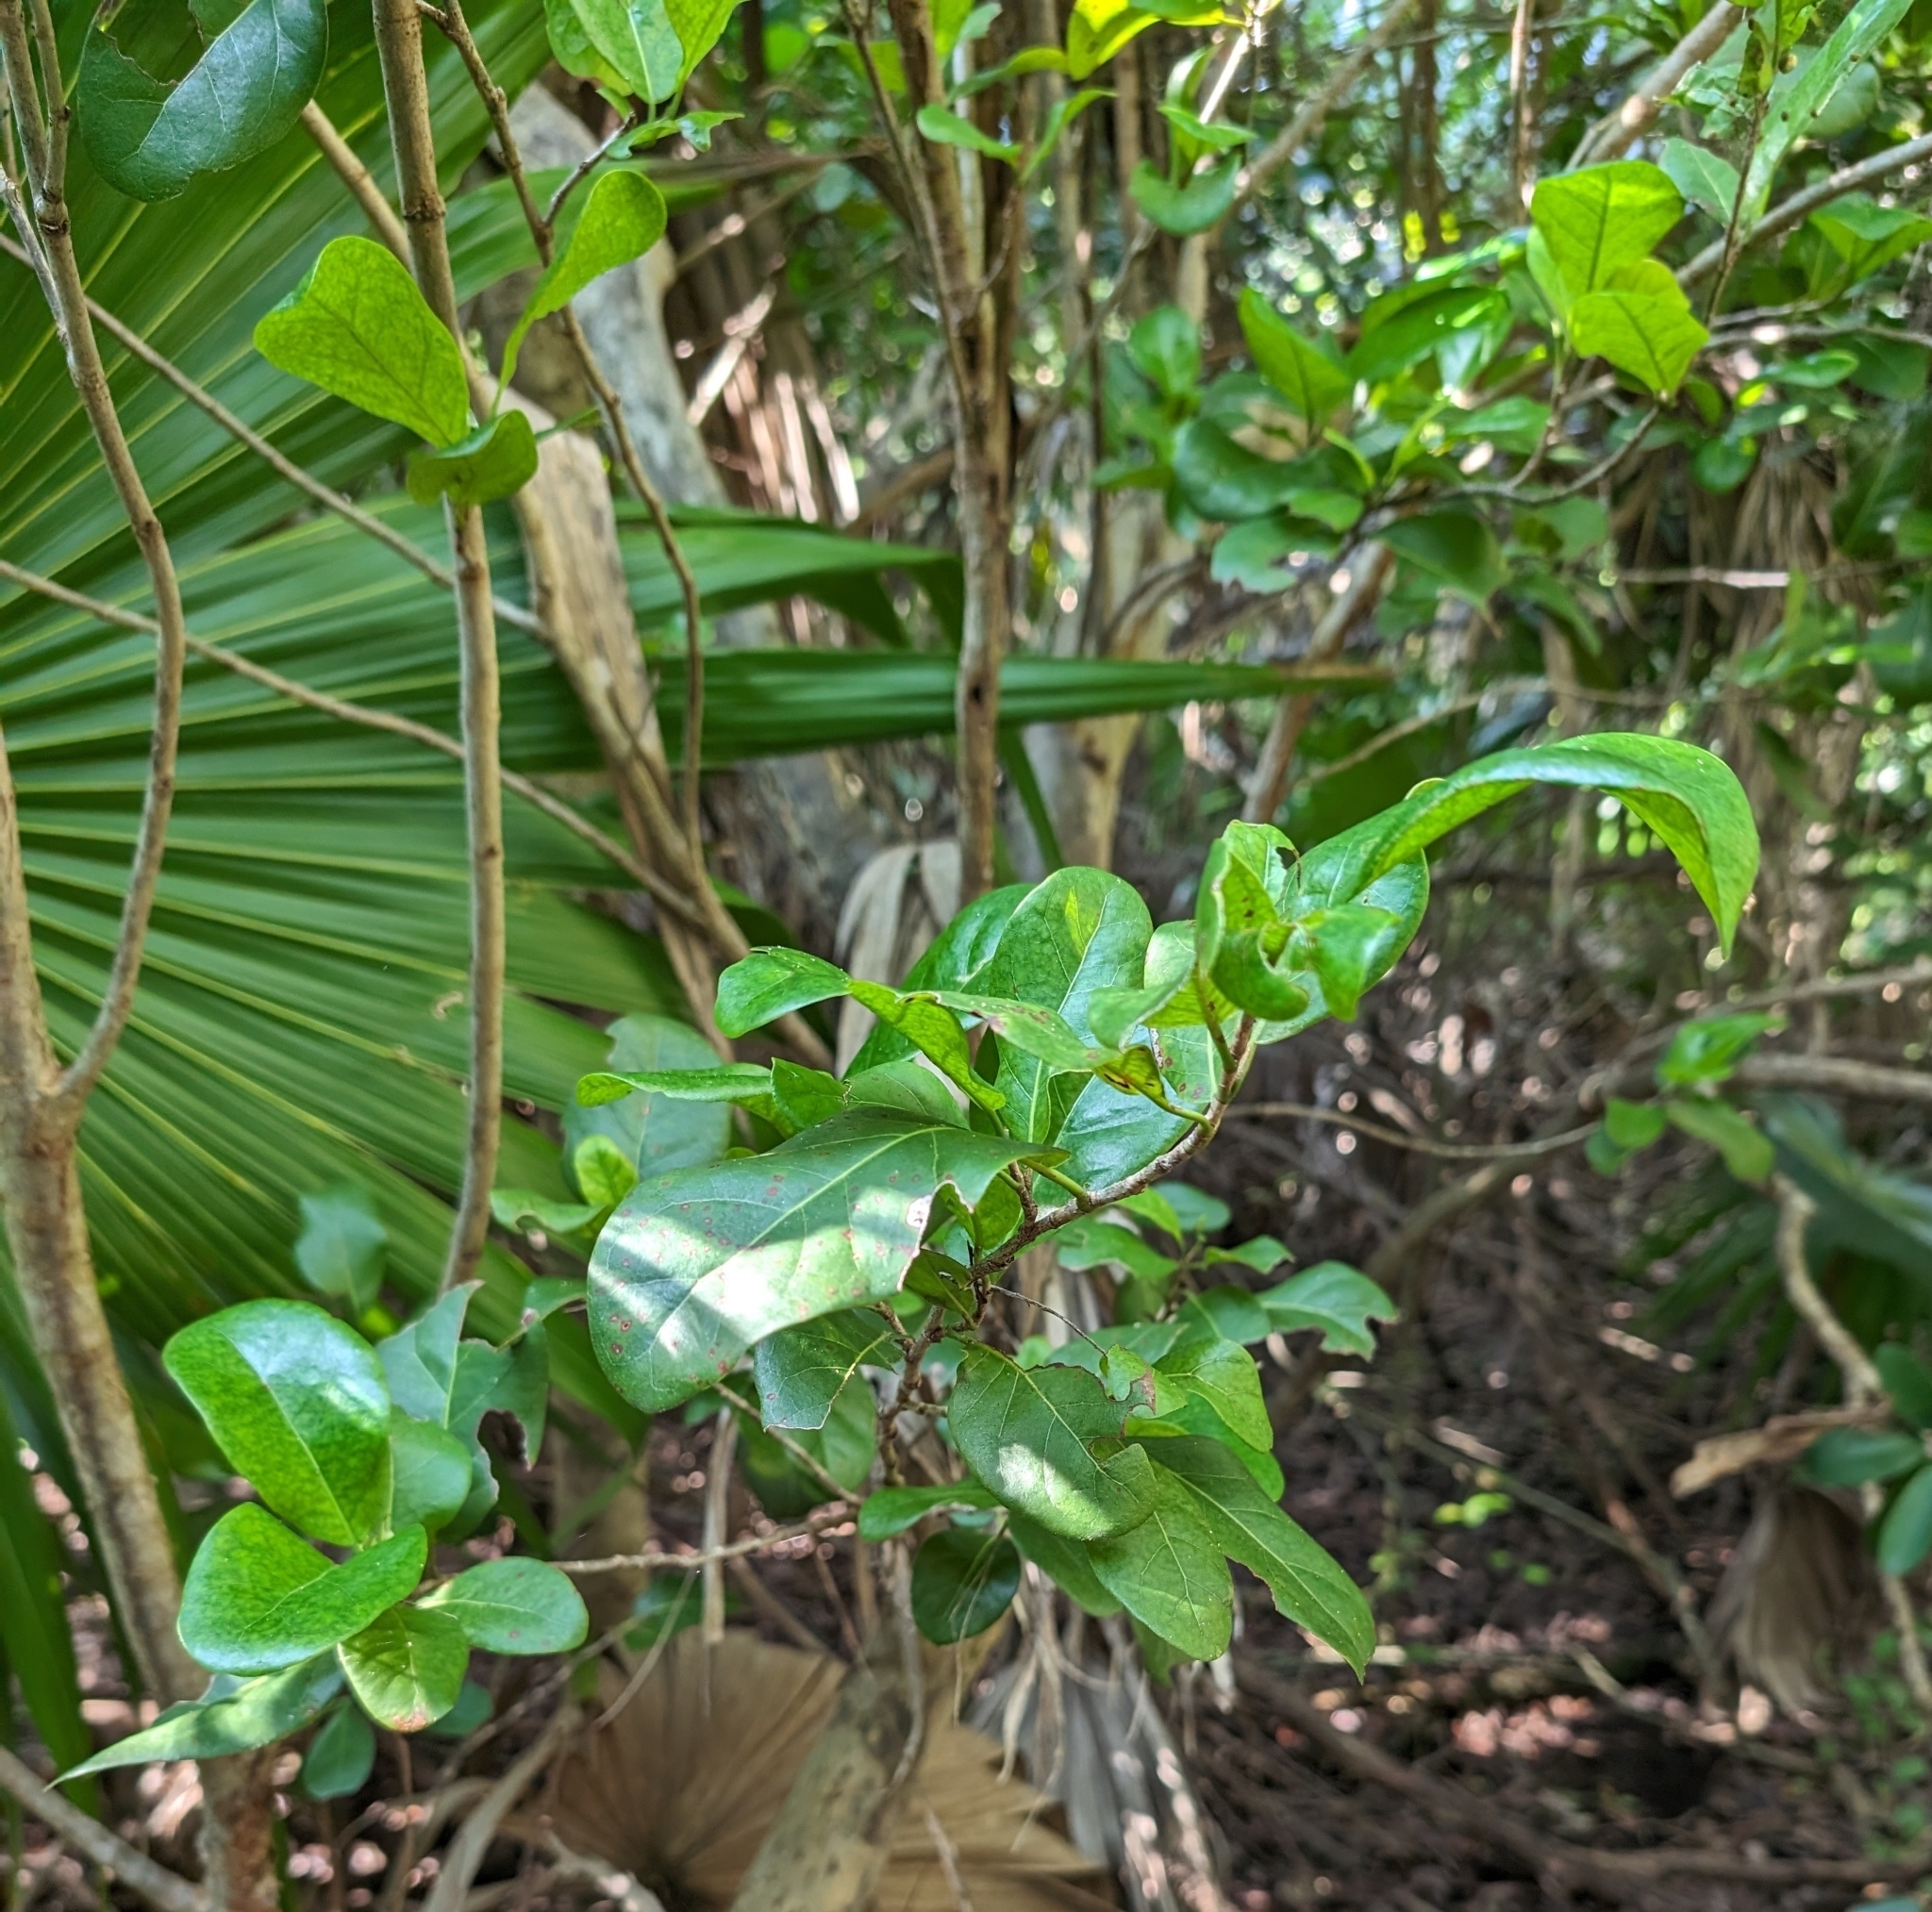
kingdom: Plantae
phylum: Tracheophyta
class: Magnoliopsida
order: Caryophyllales
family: Polygonaceae
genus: Coccoloba
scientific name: Coccoloba diversifolia
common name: Pigeon-plum
